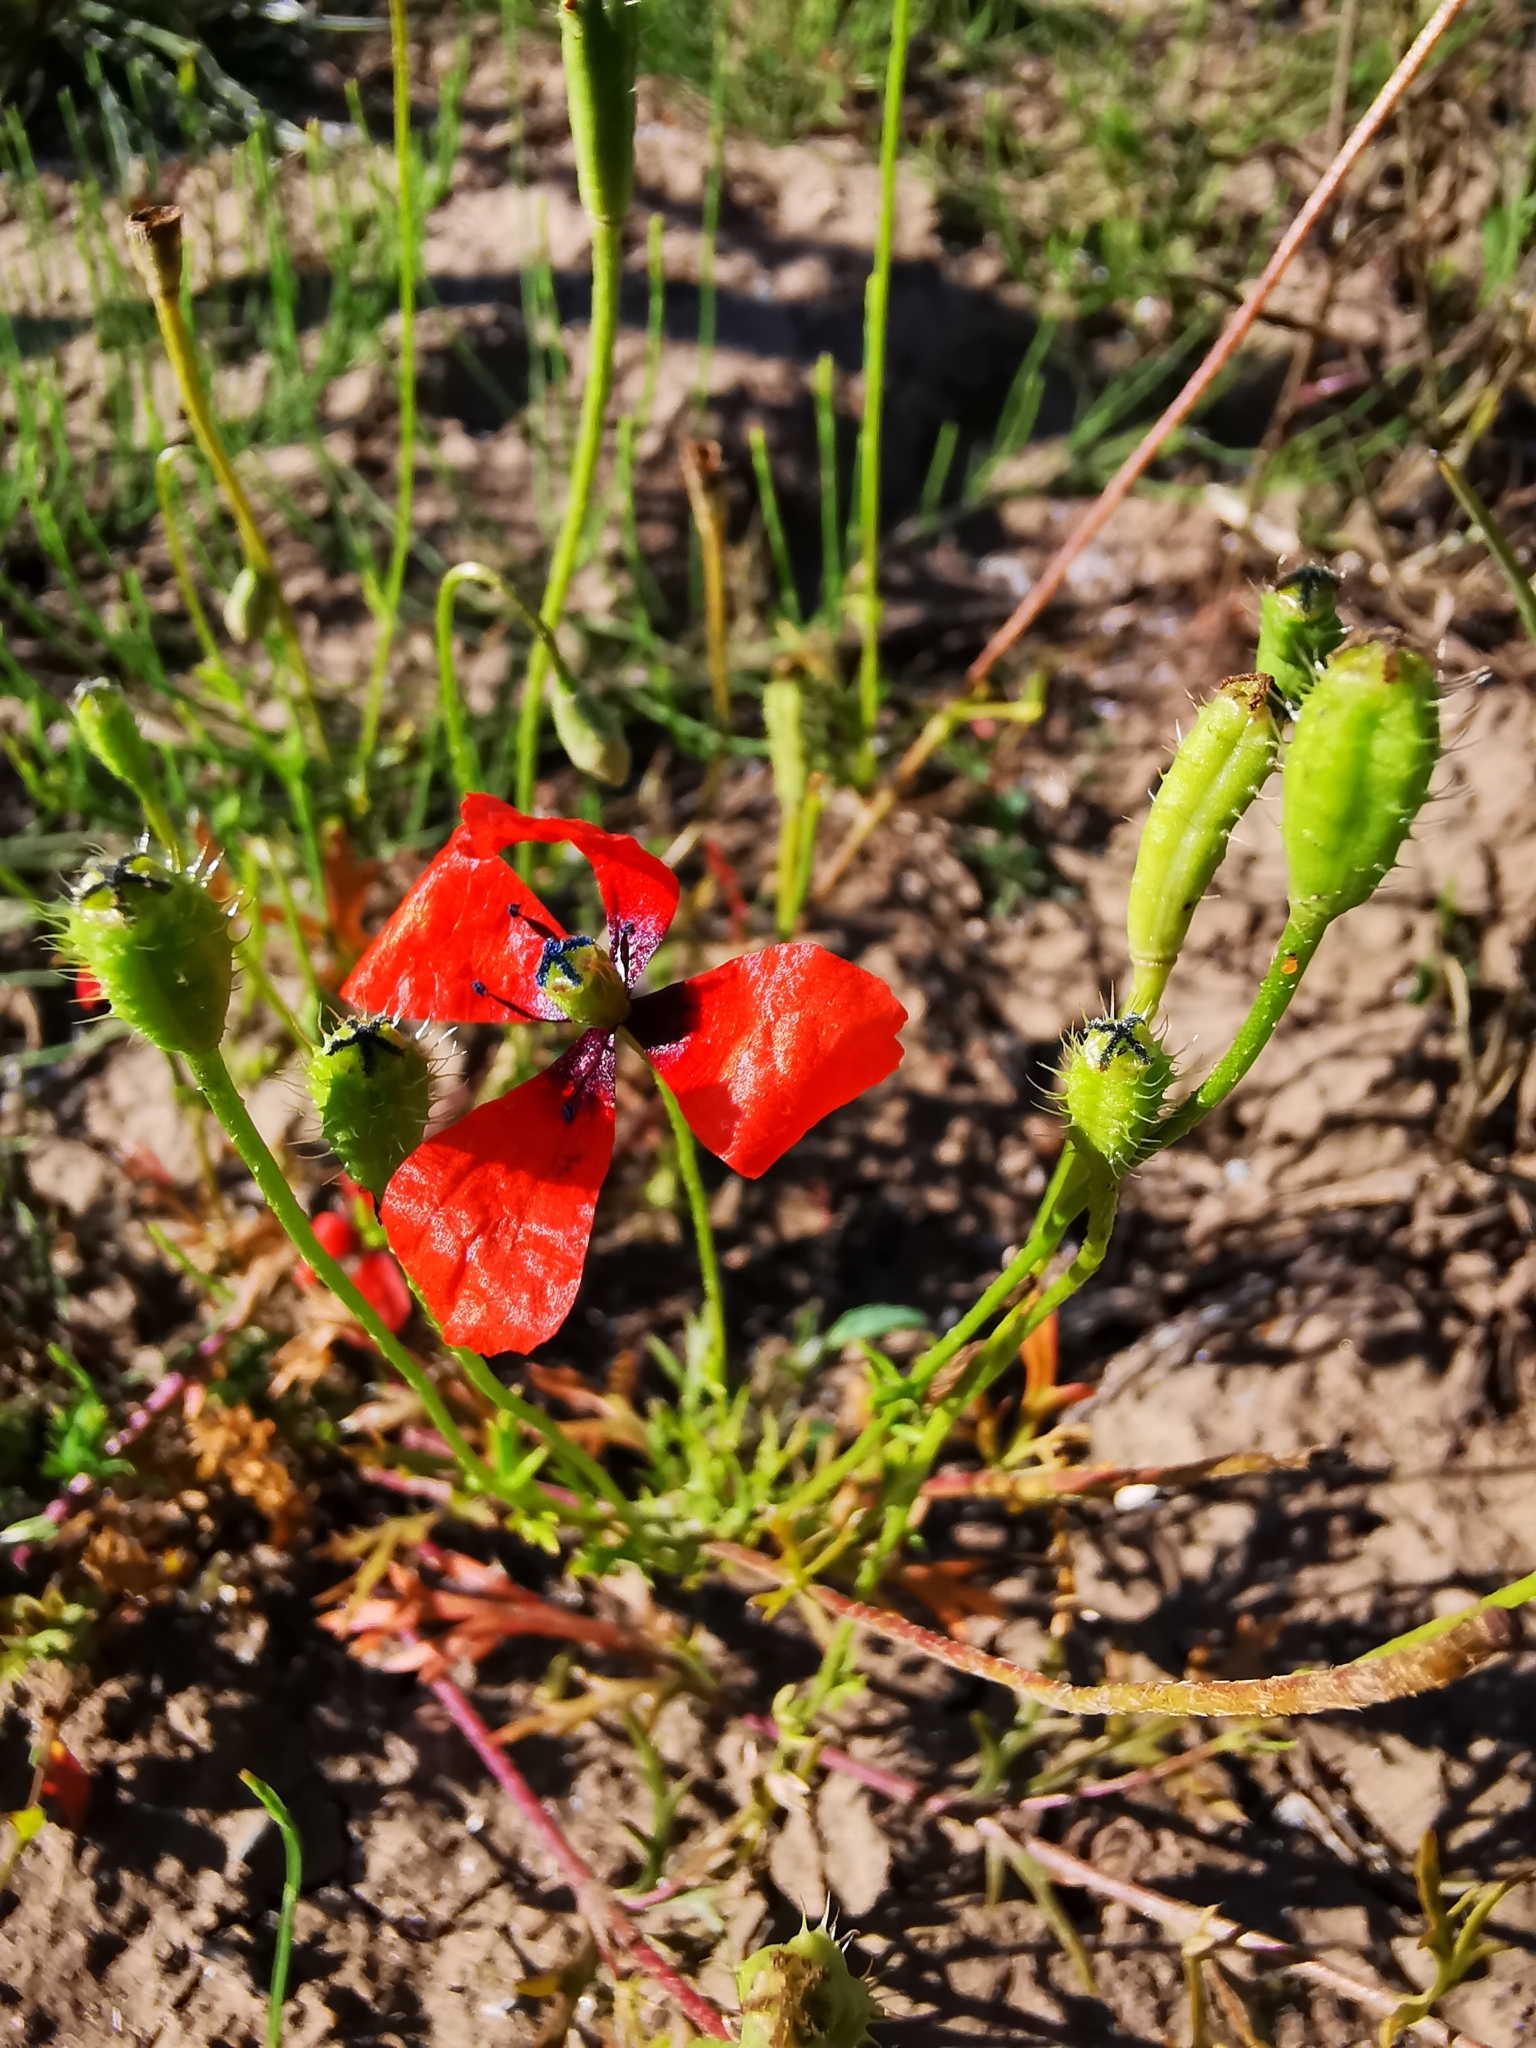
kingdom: Plantae
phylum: Tracheophyta
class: Magnoliopsida
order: Ranunculales
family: Papaveraceae
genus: Roemeria
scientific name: Roemeria argemone
